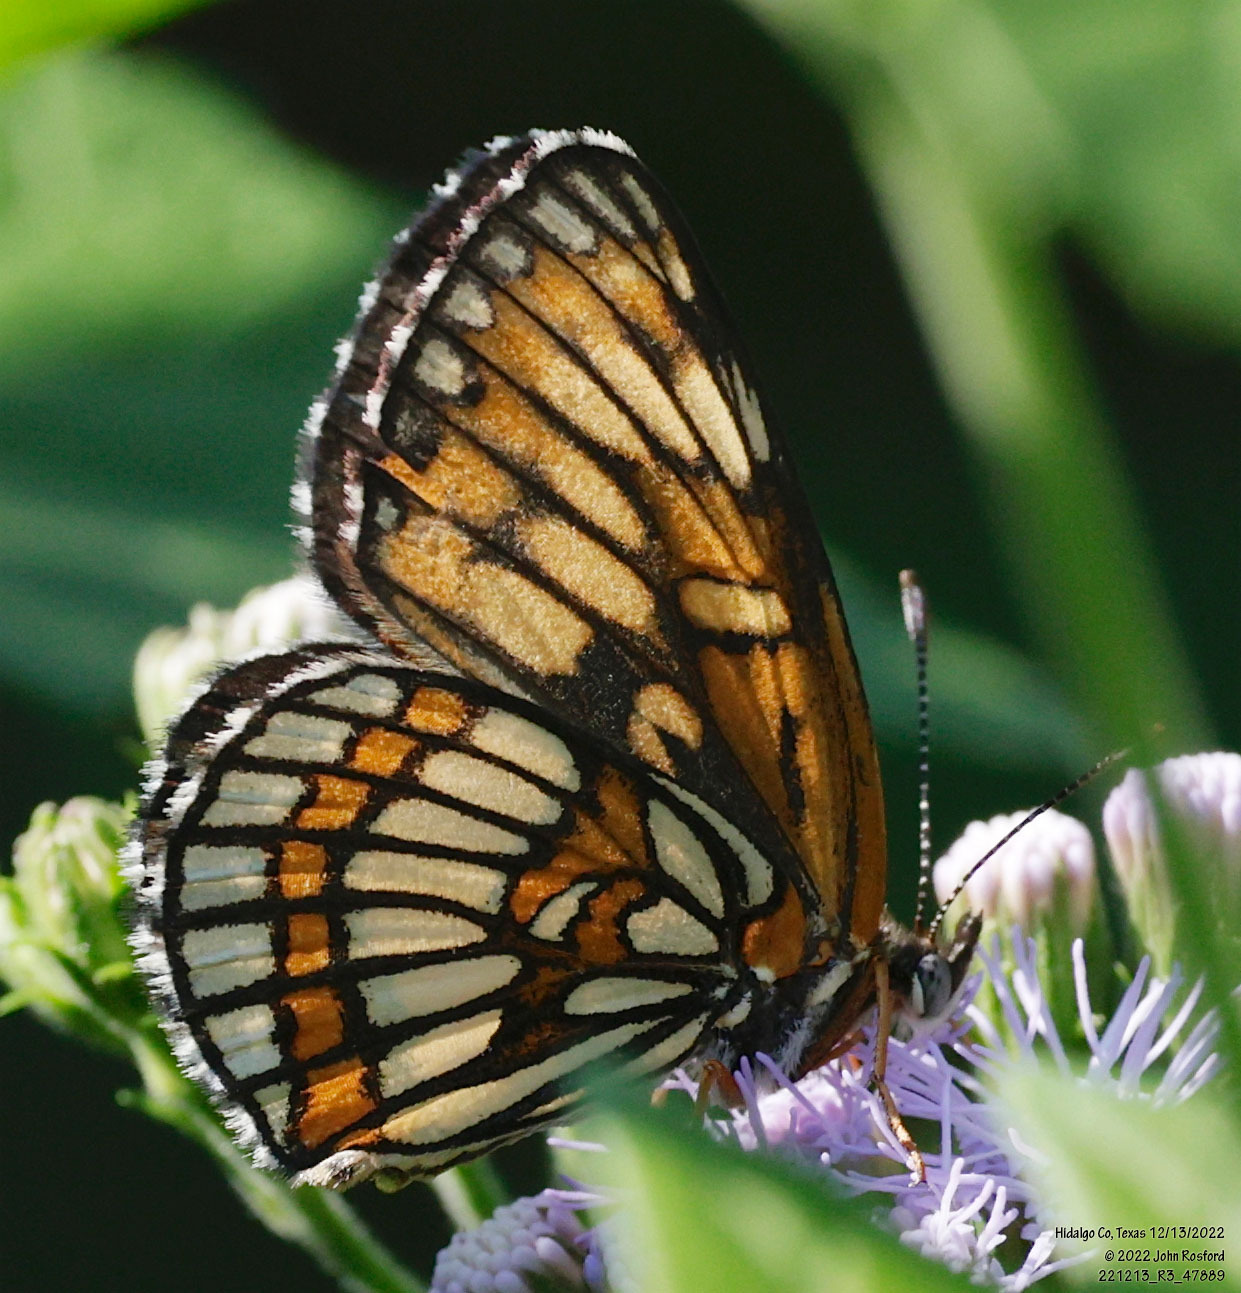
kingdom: Animalia
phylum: Arthropoda
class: Insecta
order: Lepidoptera
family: Nymphalidae
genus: Thessalia
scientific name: Thessalia theona
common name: Nymphalid moth
